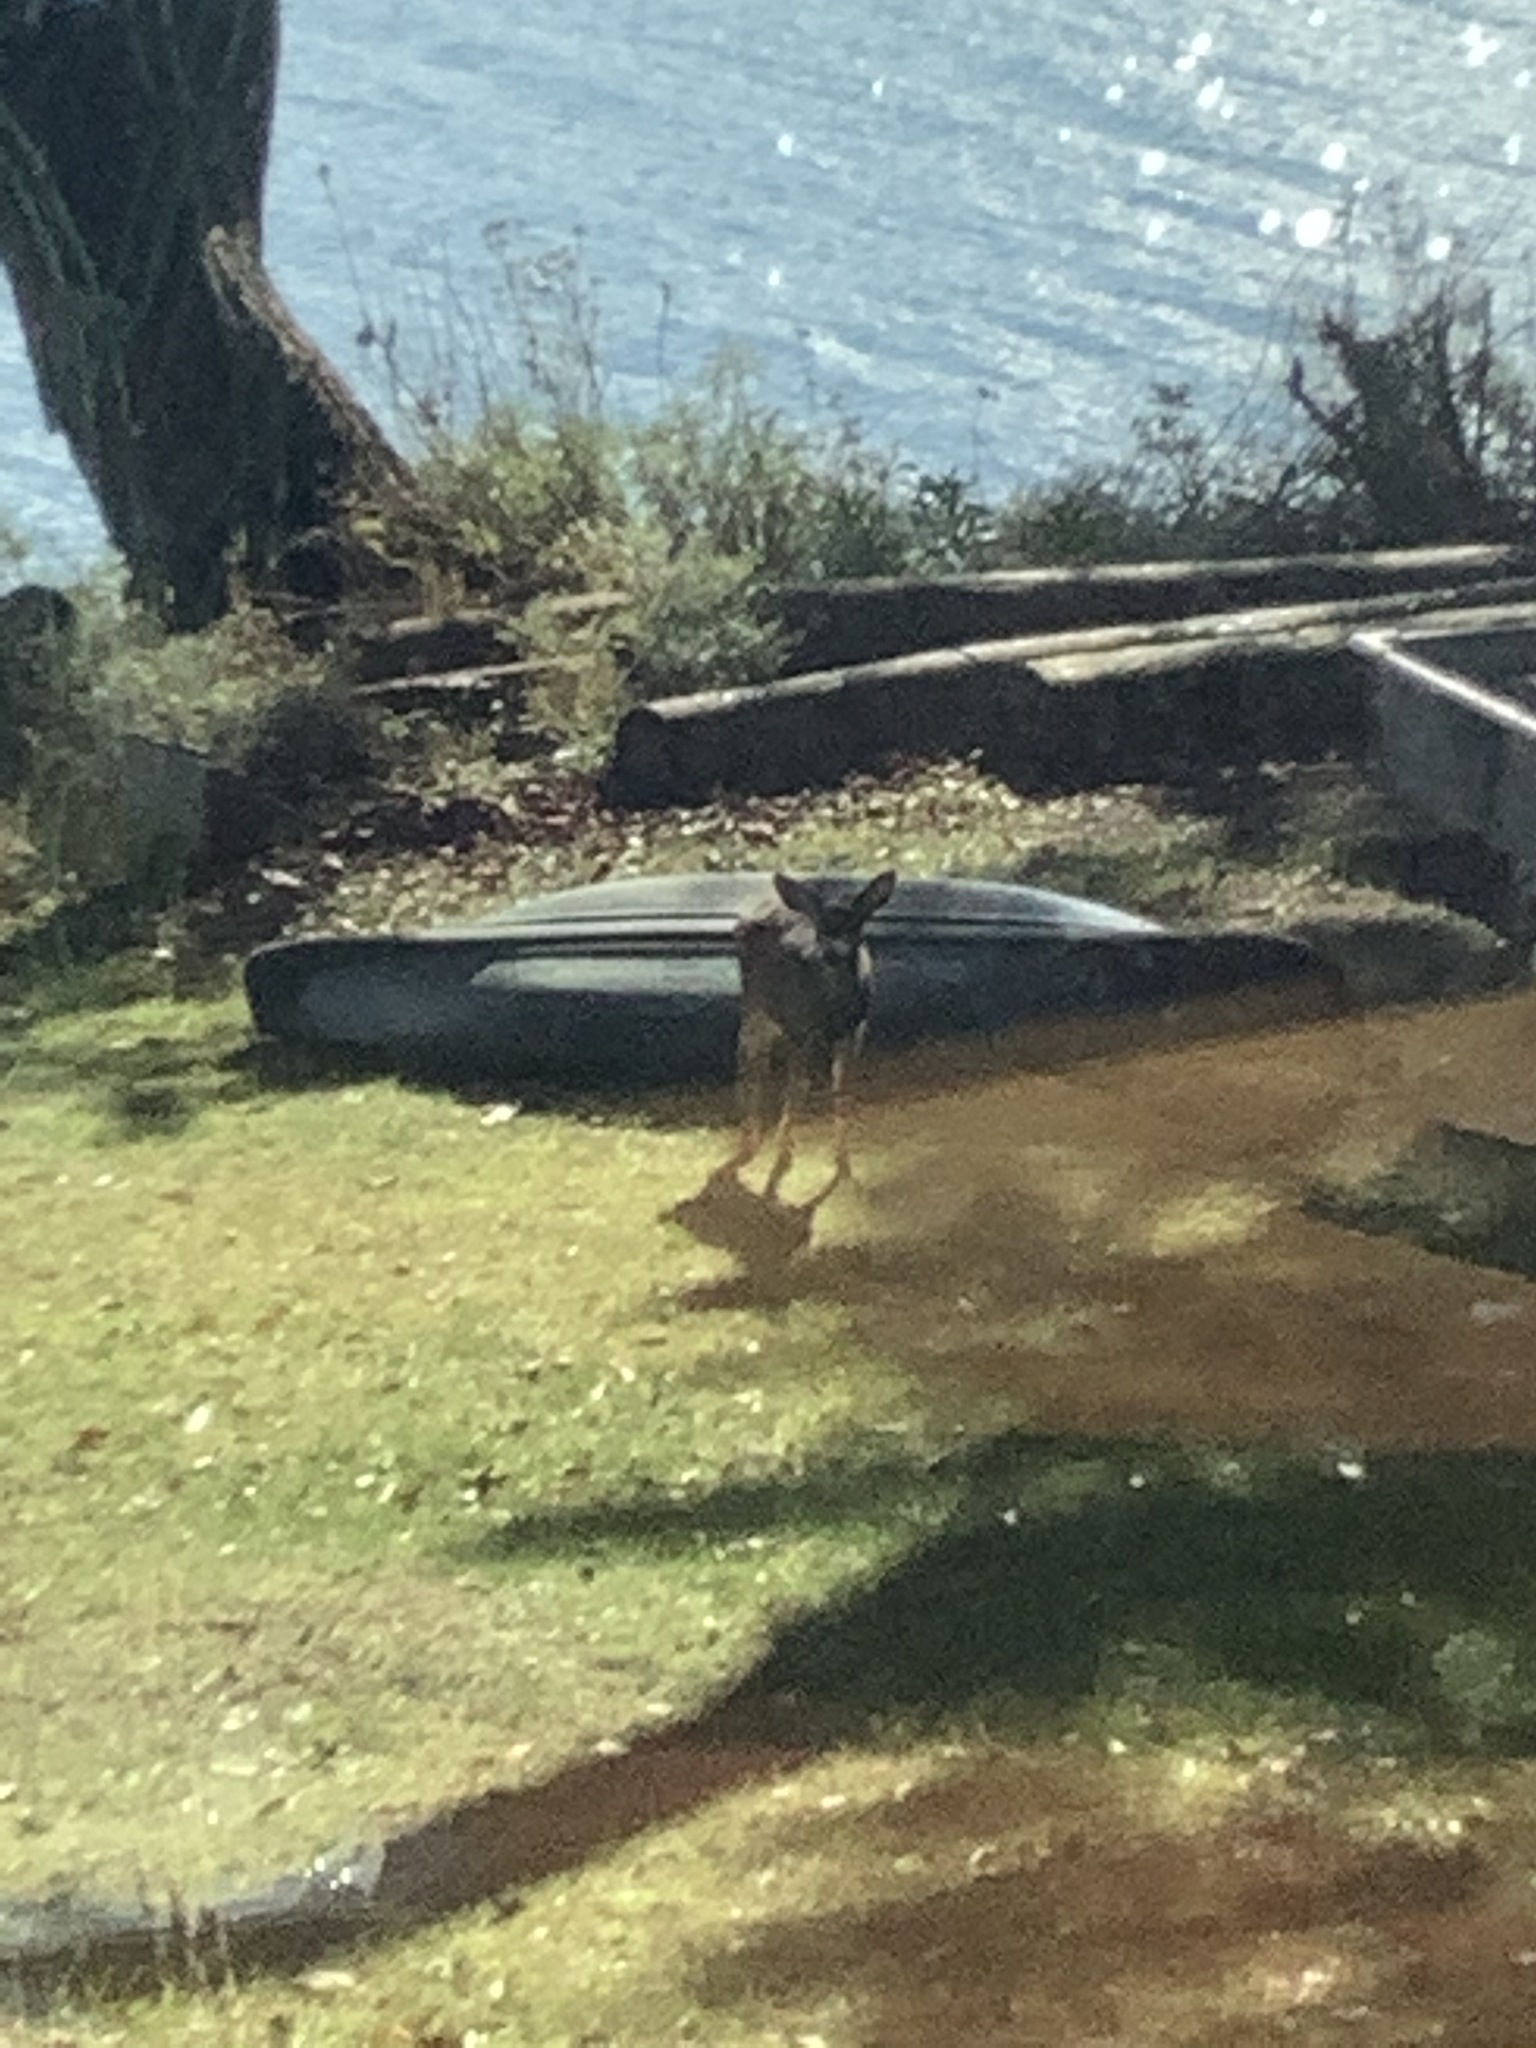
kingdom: Animalia
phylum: Chordata
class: Mammalia
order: Artiodactyla
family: Cervidae
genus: Odocoileus
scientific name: Odocoileus hemionus
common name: Mule deer
